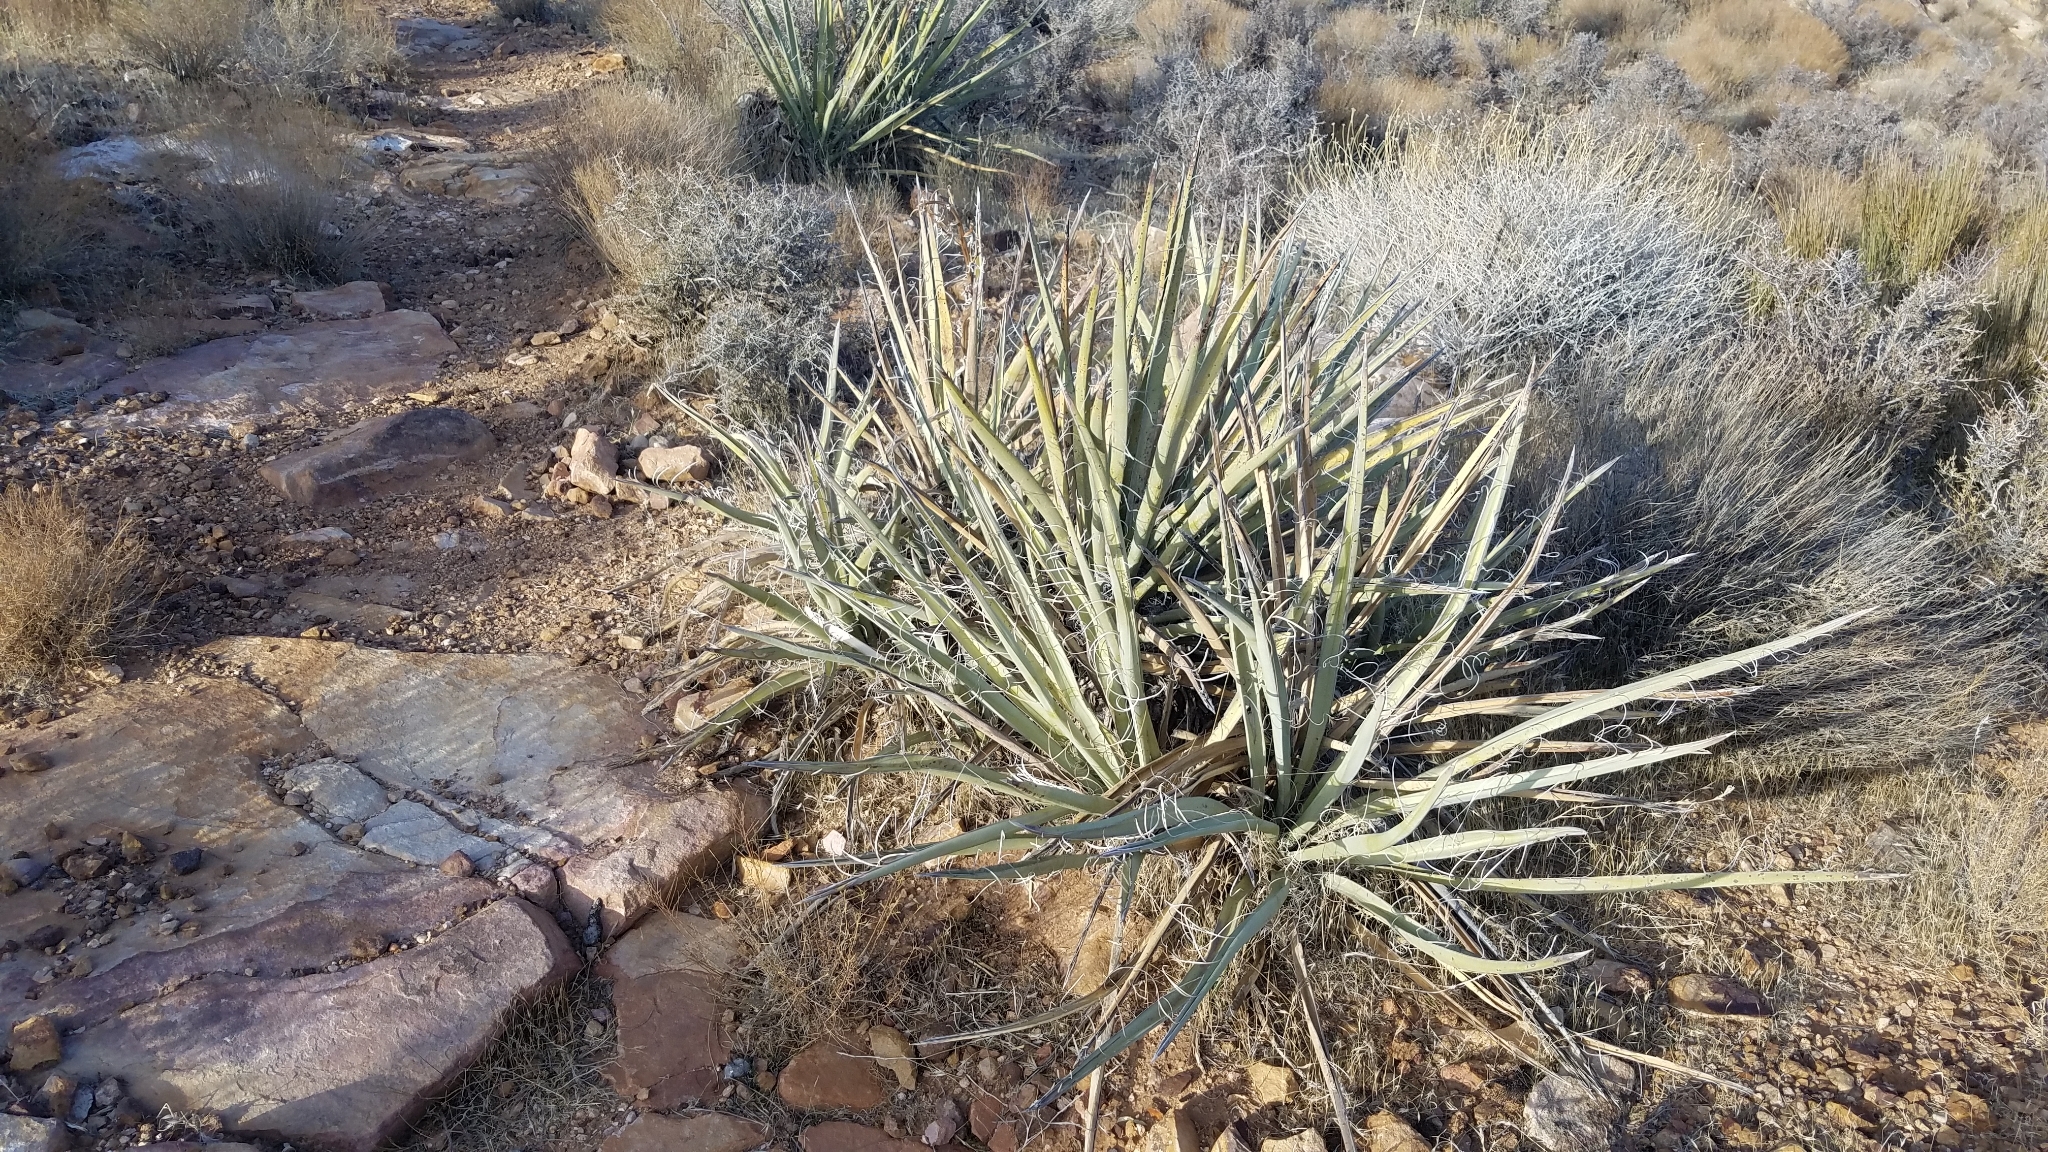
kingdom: Plantae
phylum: Tracheophyta
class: Liliopsida
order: Asparagales
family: Asparagaceae
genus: Yucca
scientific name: Yucca baccata
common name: Banana yucca
